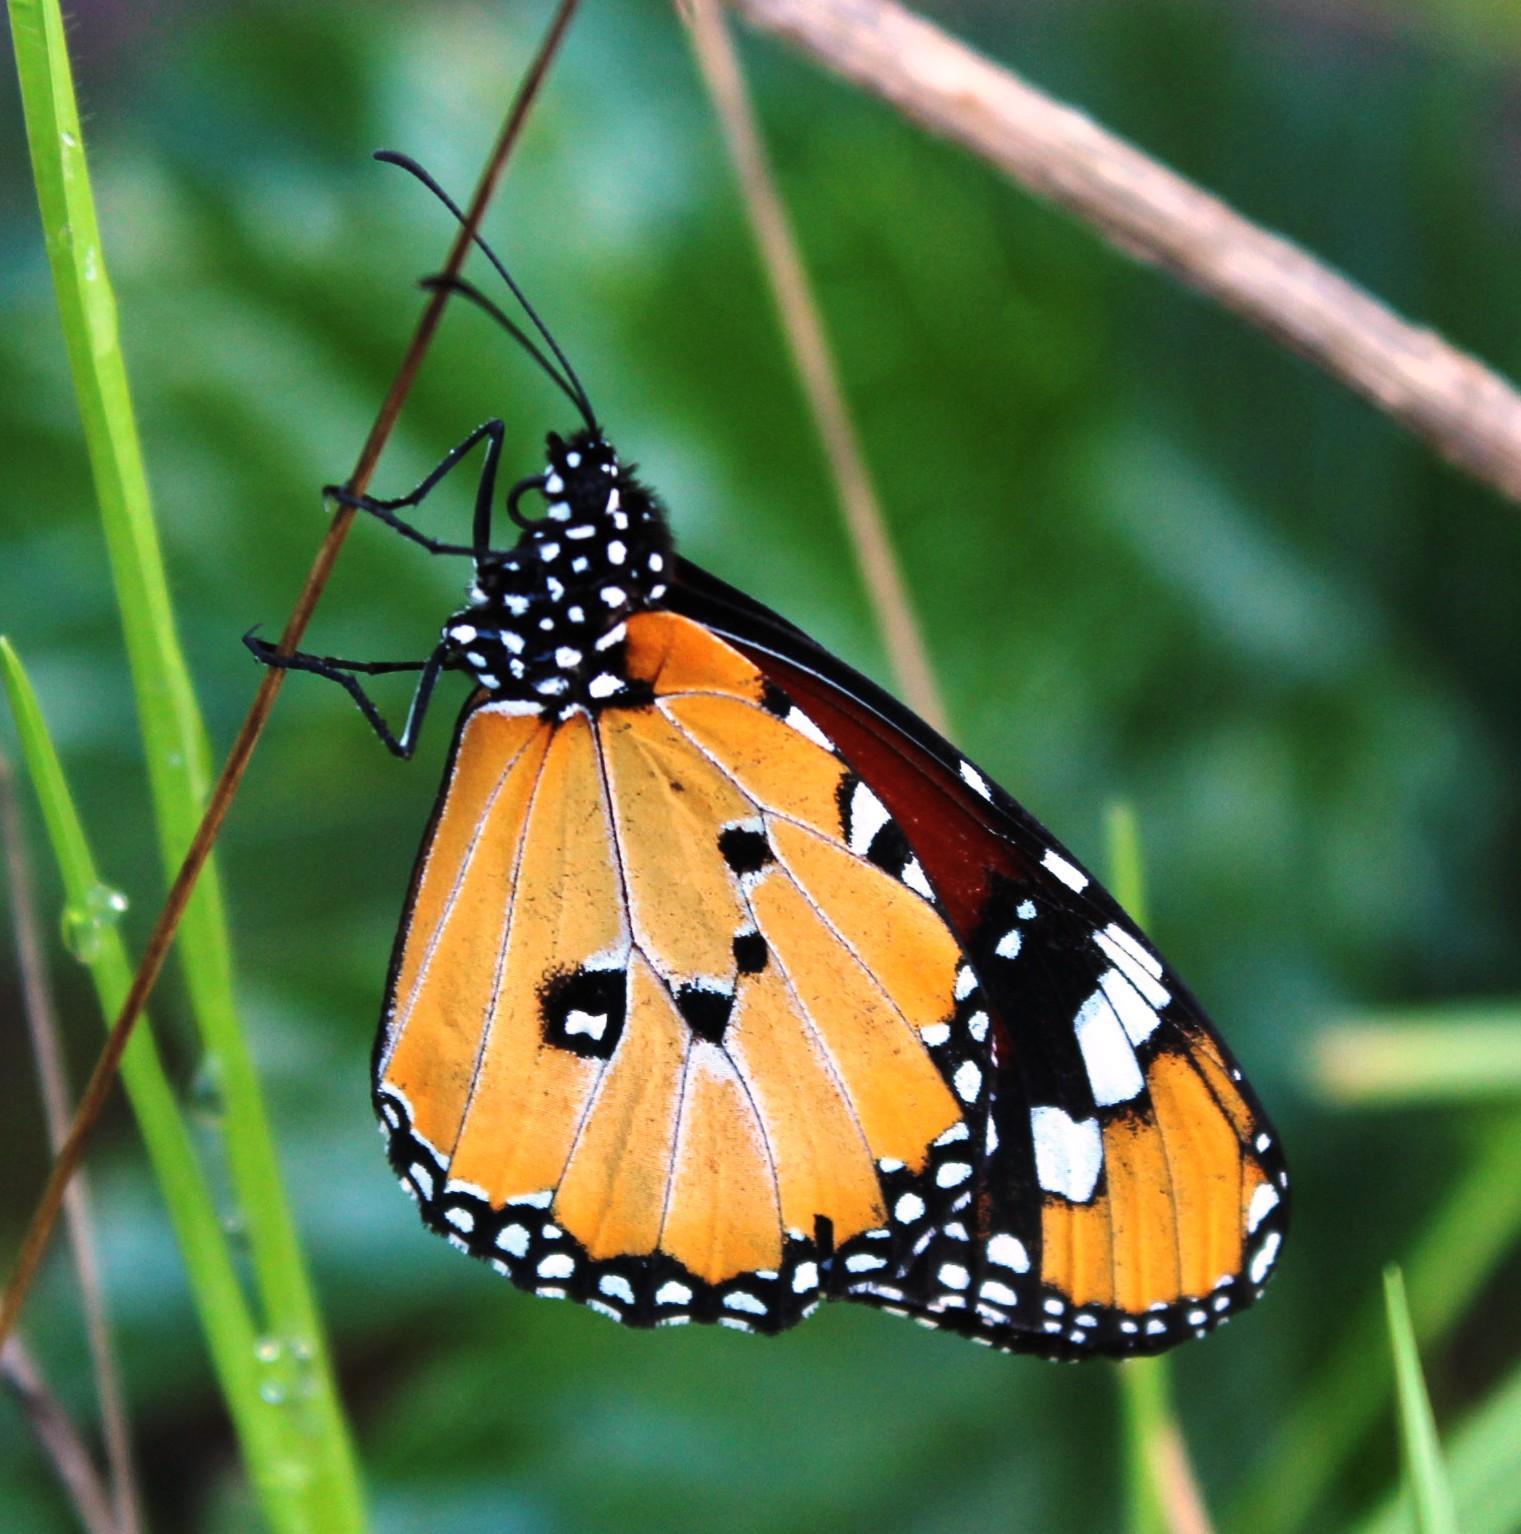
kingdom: Animalia
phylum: Arthropoda
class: Insecta
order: Lepidoptera
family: Nymphalidae
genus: Danaus
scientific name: Danaus chrysippus
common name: Plain tiger
